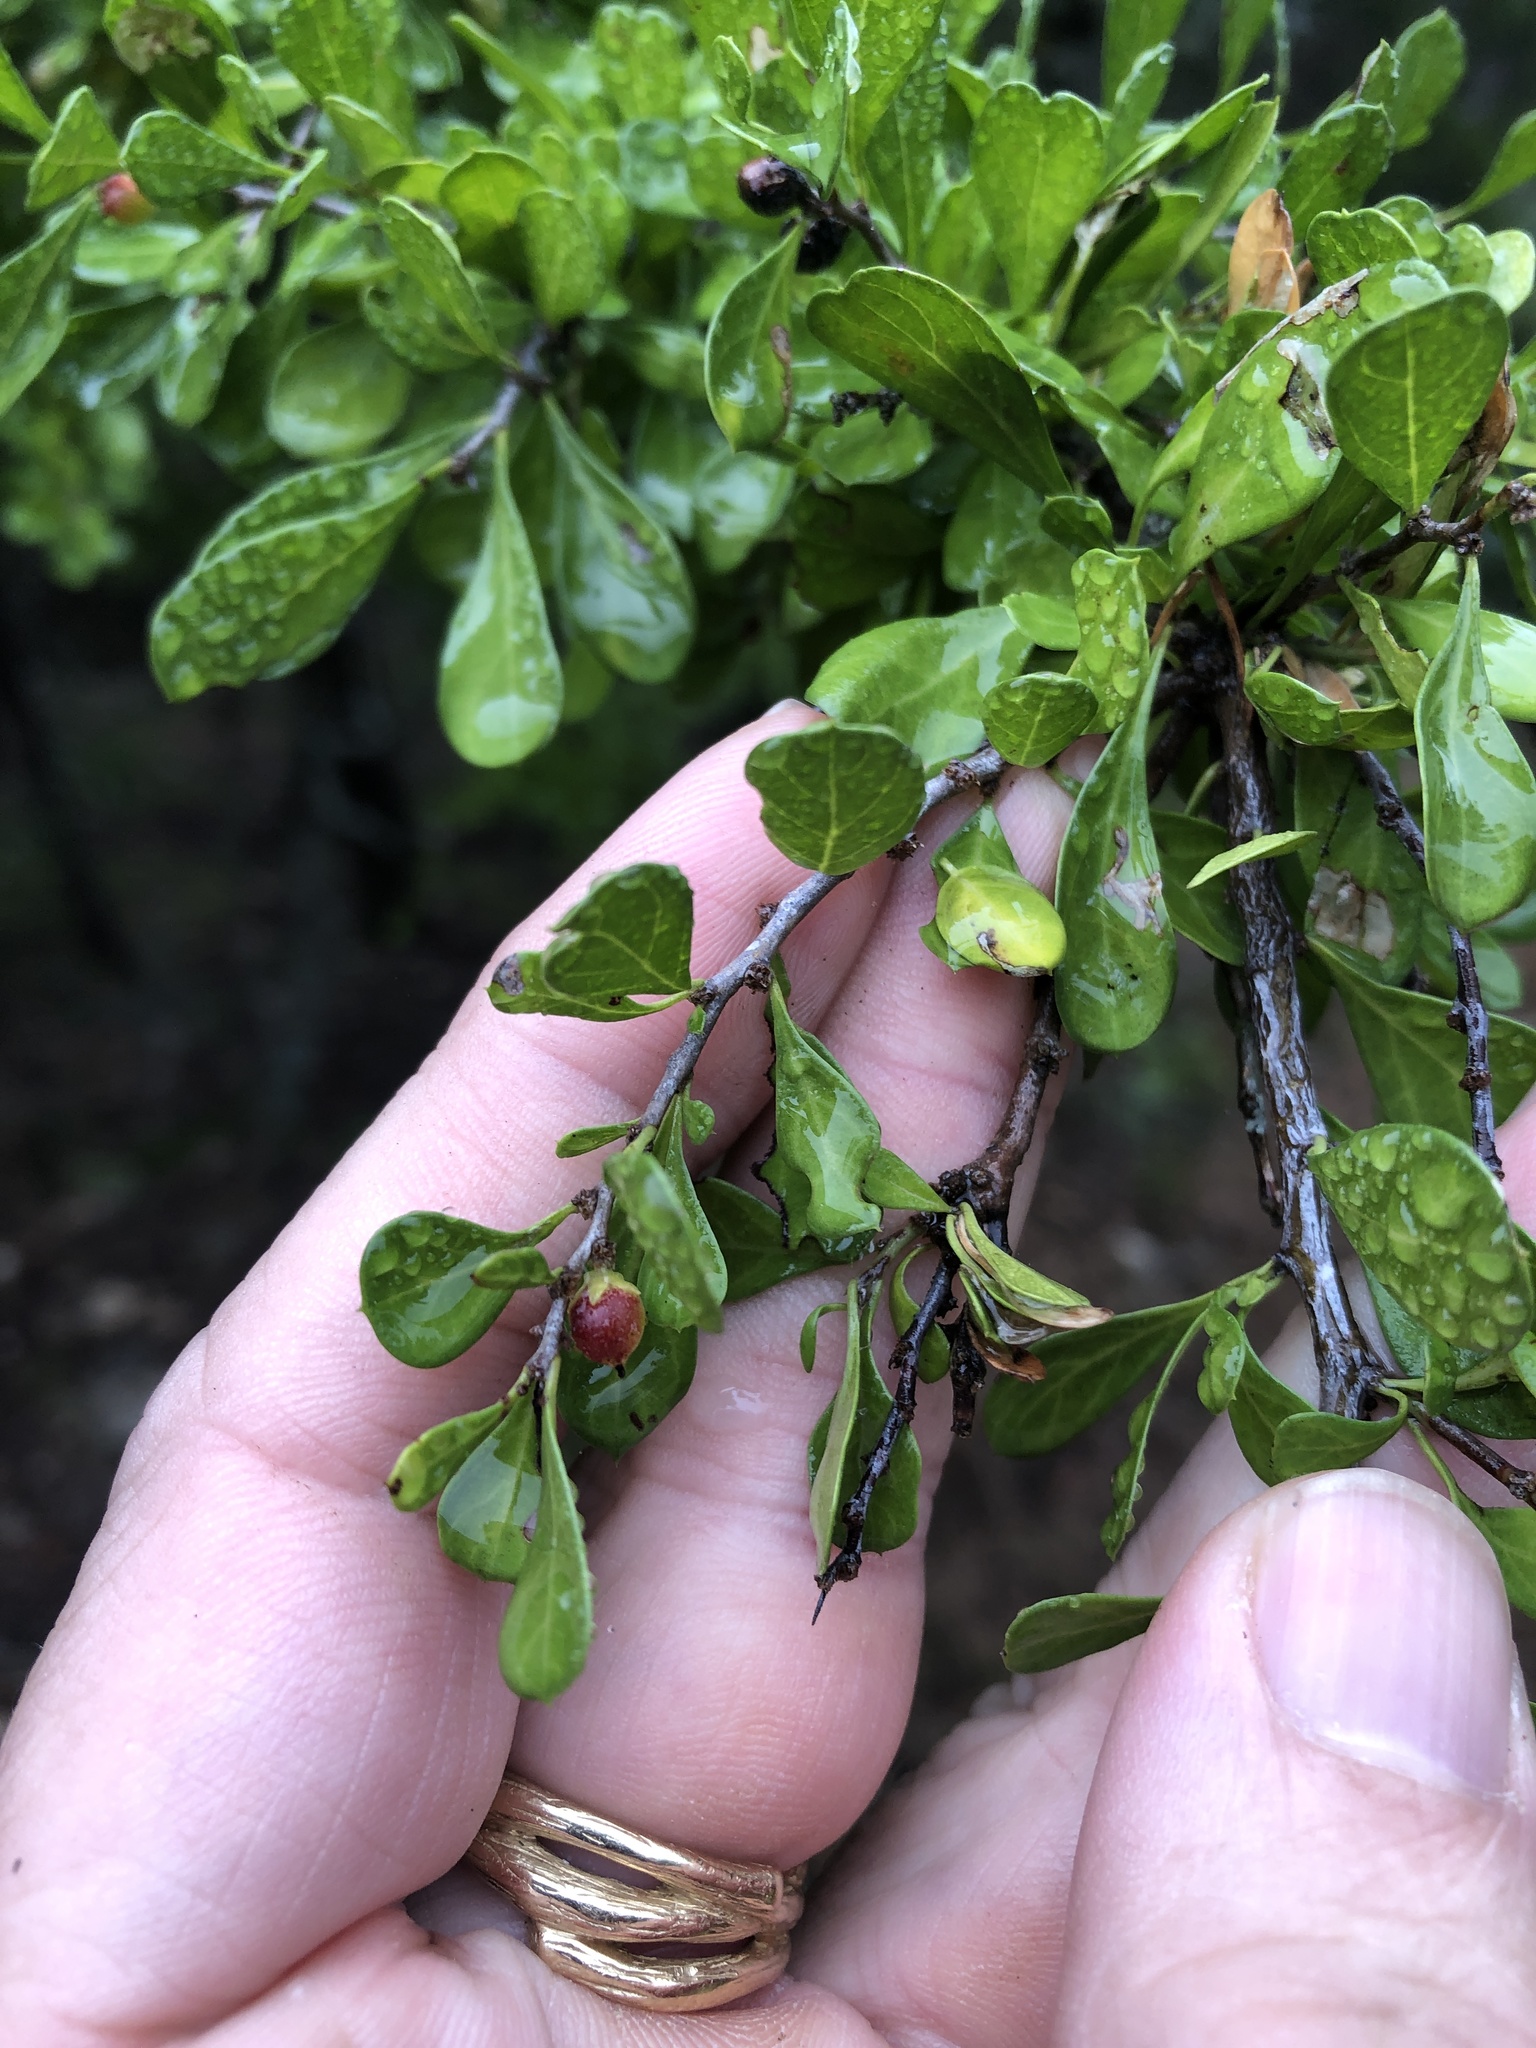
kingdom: Plantae
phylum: Tracheophyta
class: Magnoliopsida
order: Rosales
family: Rhamnaceae
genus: Condalia
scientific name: Condalia hookeri
